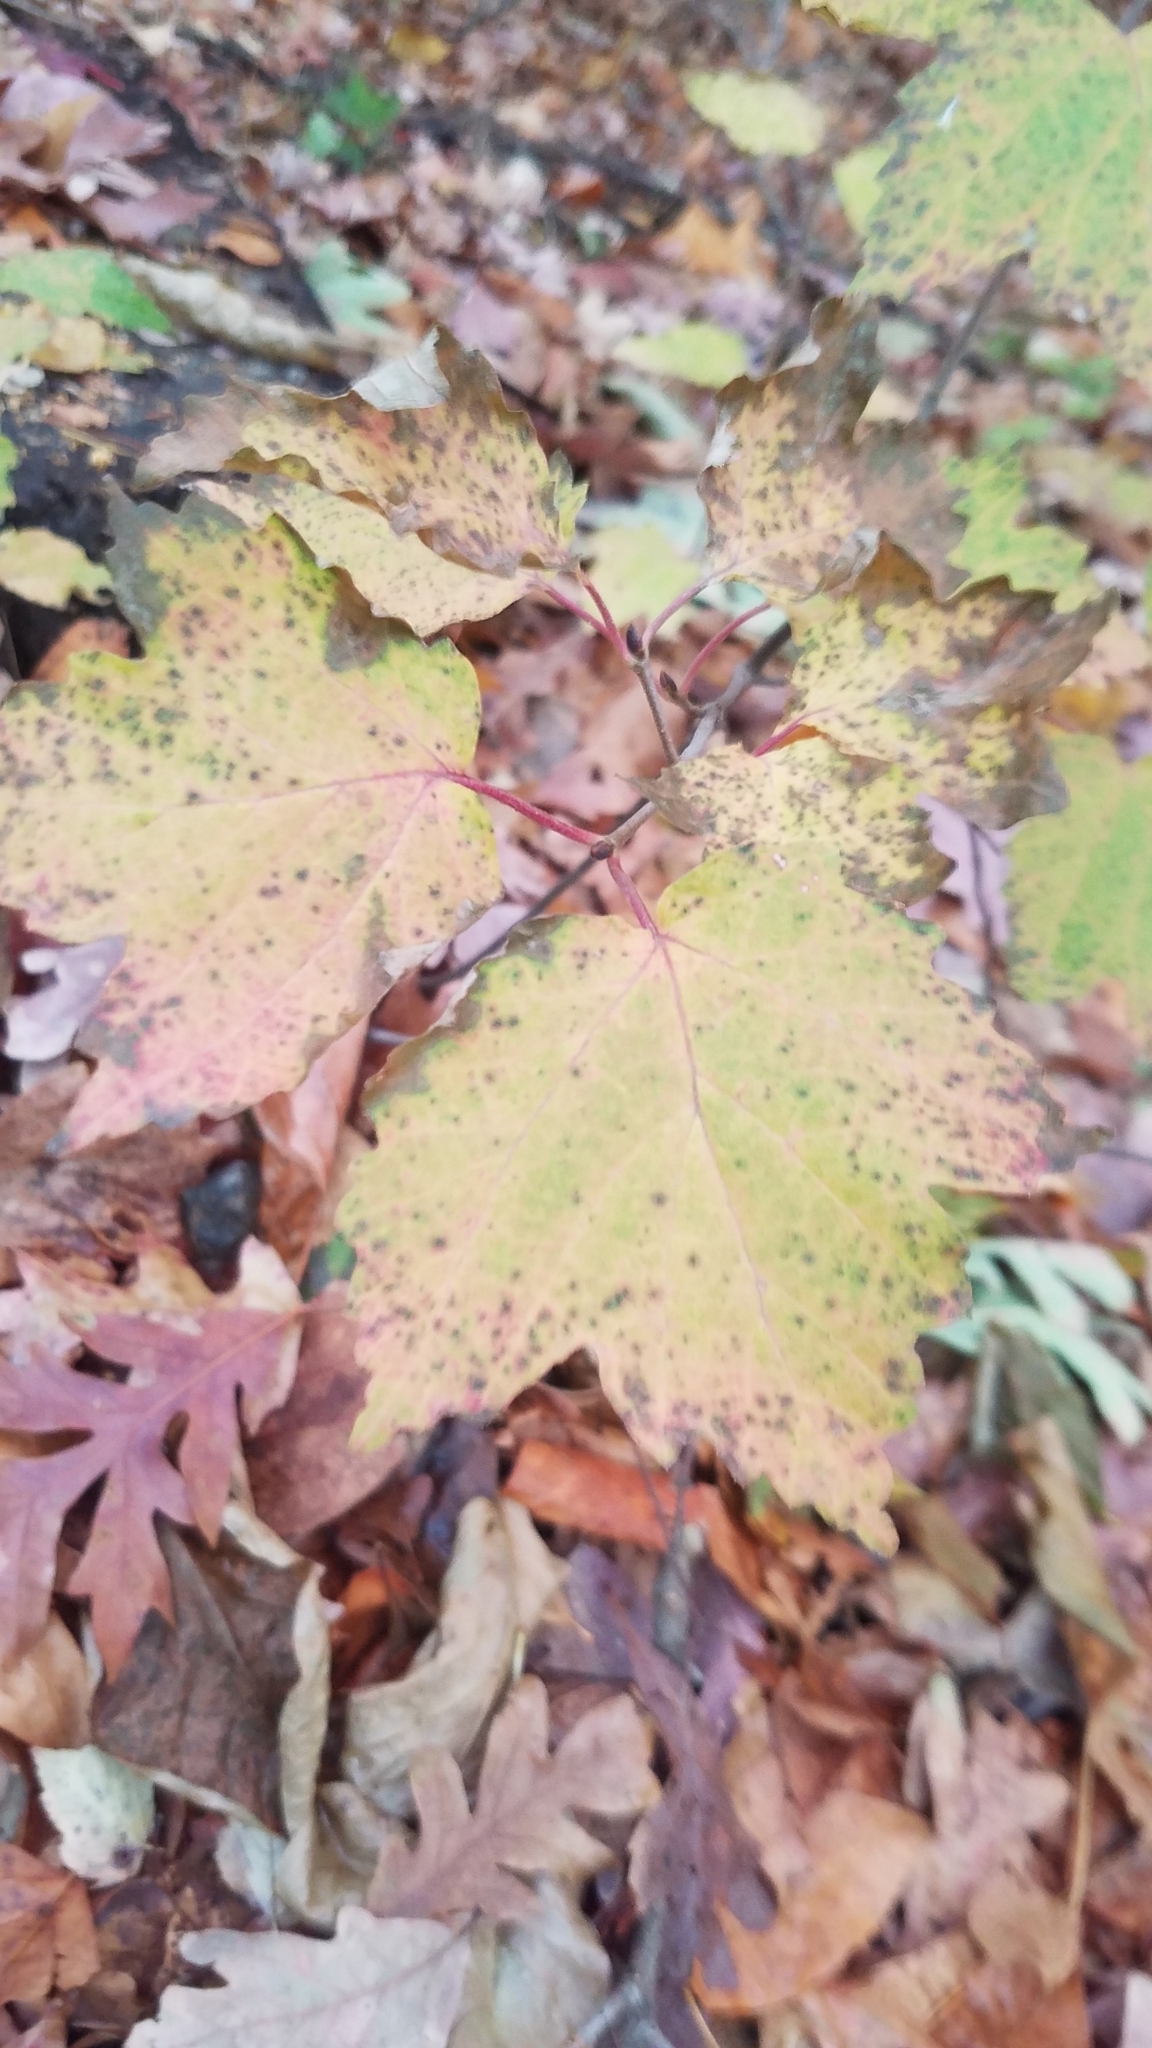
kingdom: Plantae
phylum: Tracheophyta
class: Magnoliopsida
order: Sapindales
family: Sapindaceae
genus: Acer
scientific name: Acer rubrum
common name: Red maple
